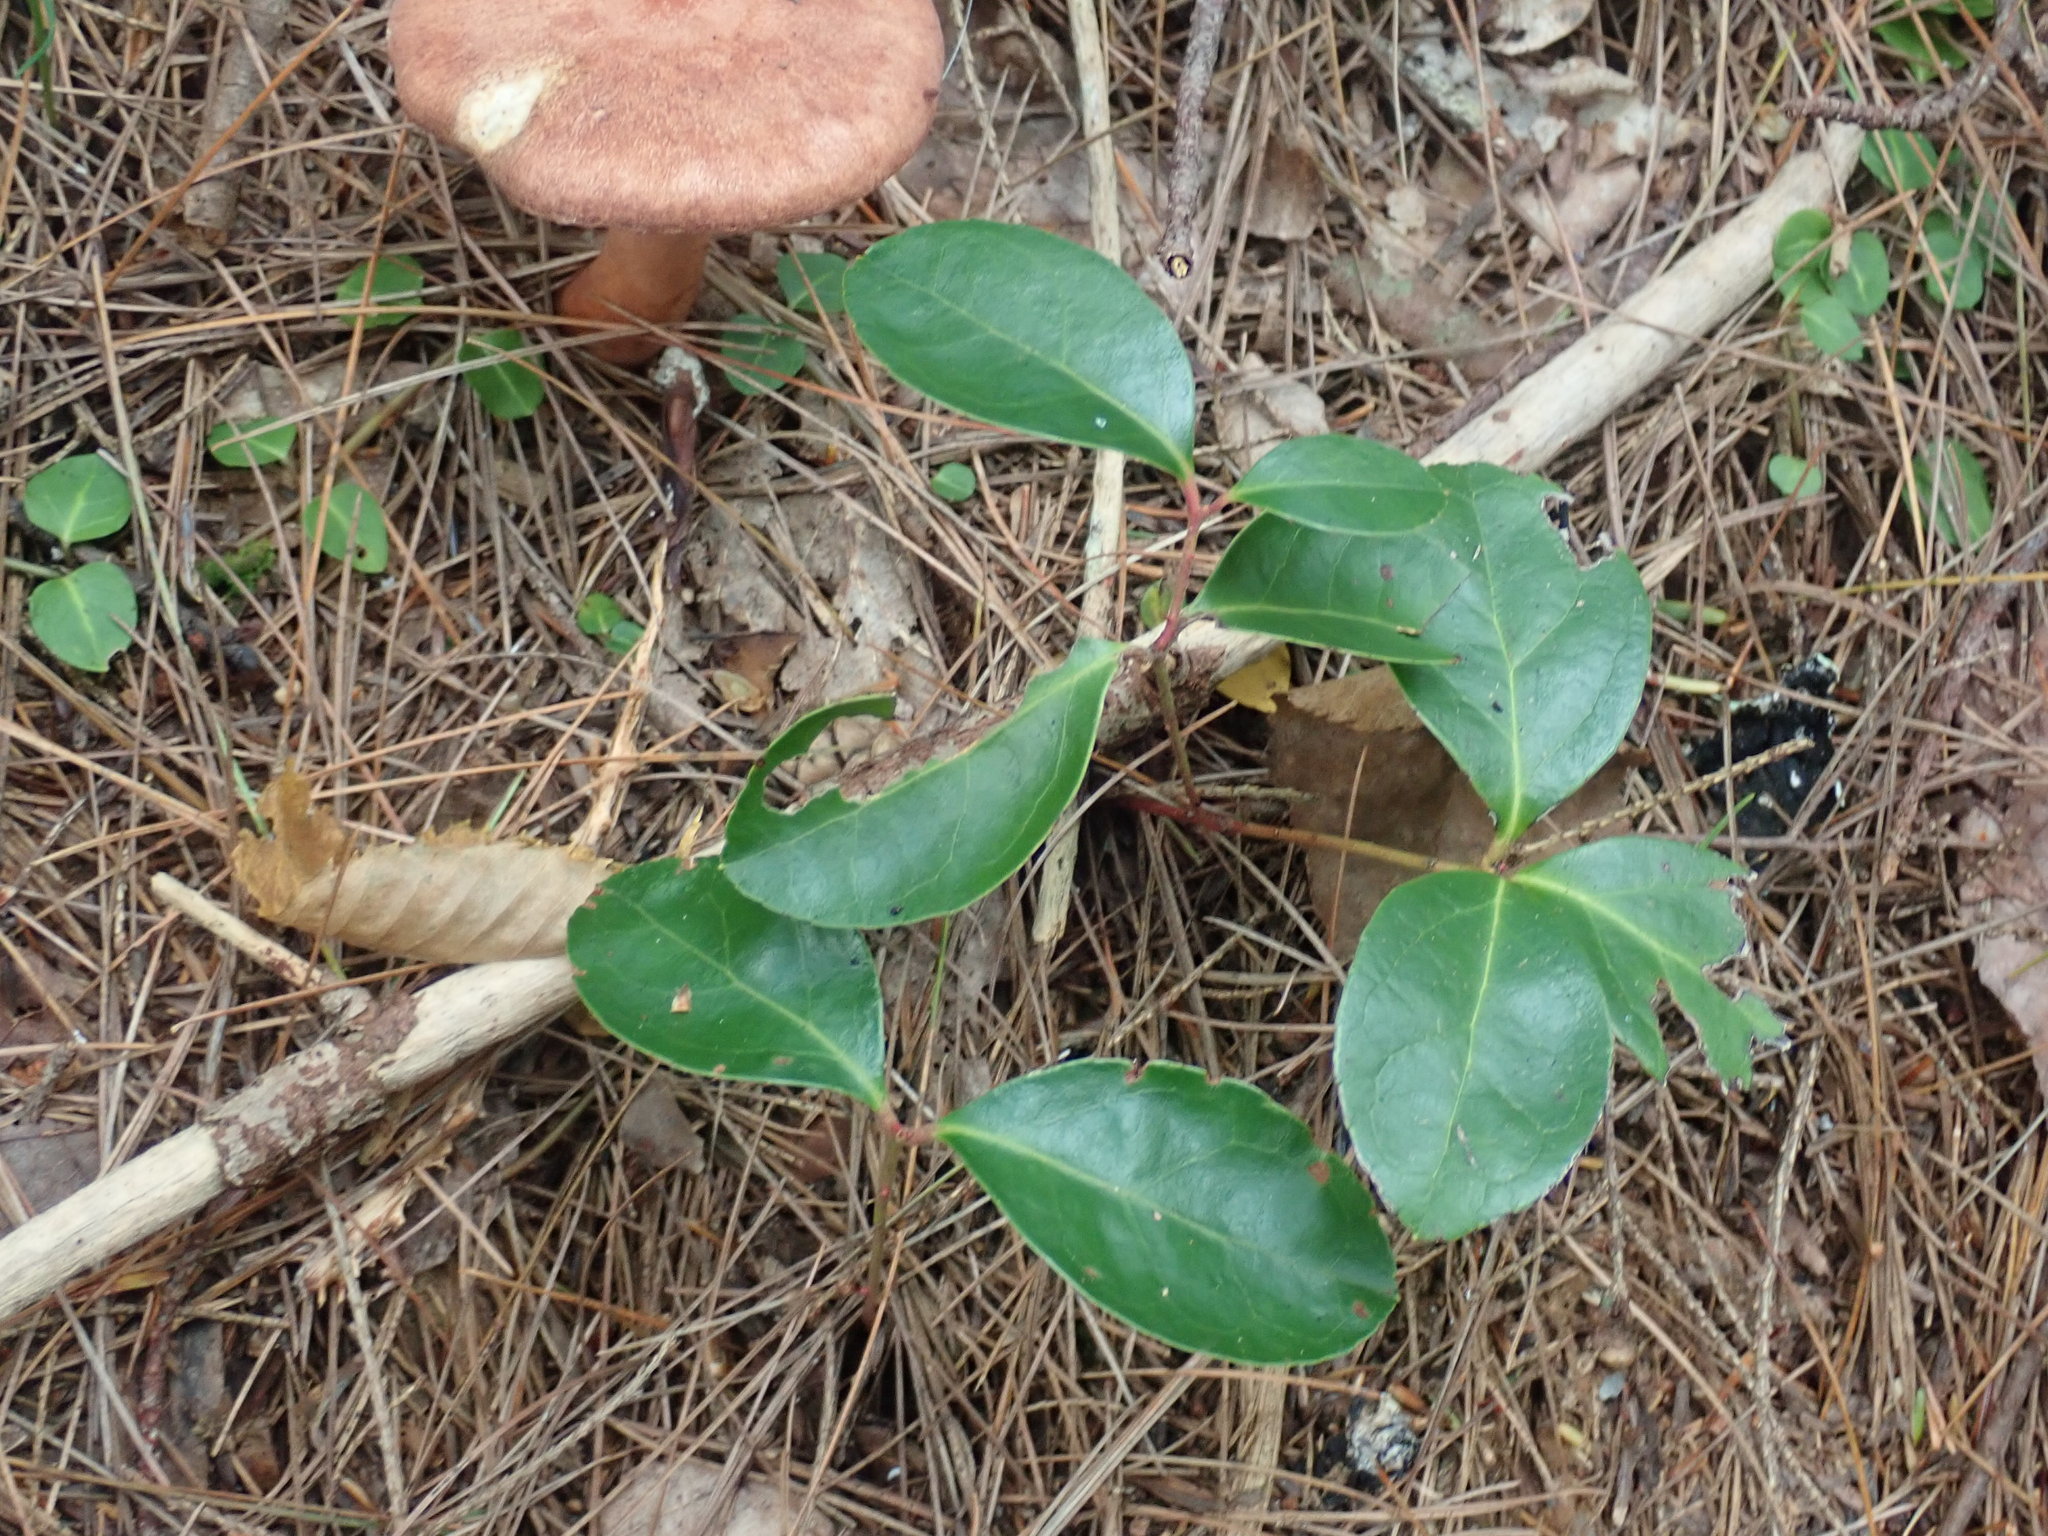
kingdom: Plantae
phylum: Tracheophyta
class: Magnoliopsida
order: Ericales
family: Ericaceae
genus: Gaultheria
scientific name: Gaultheria procumbens
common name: Checkerberry
